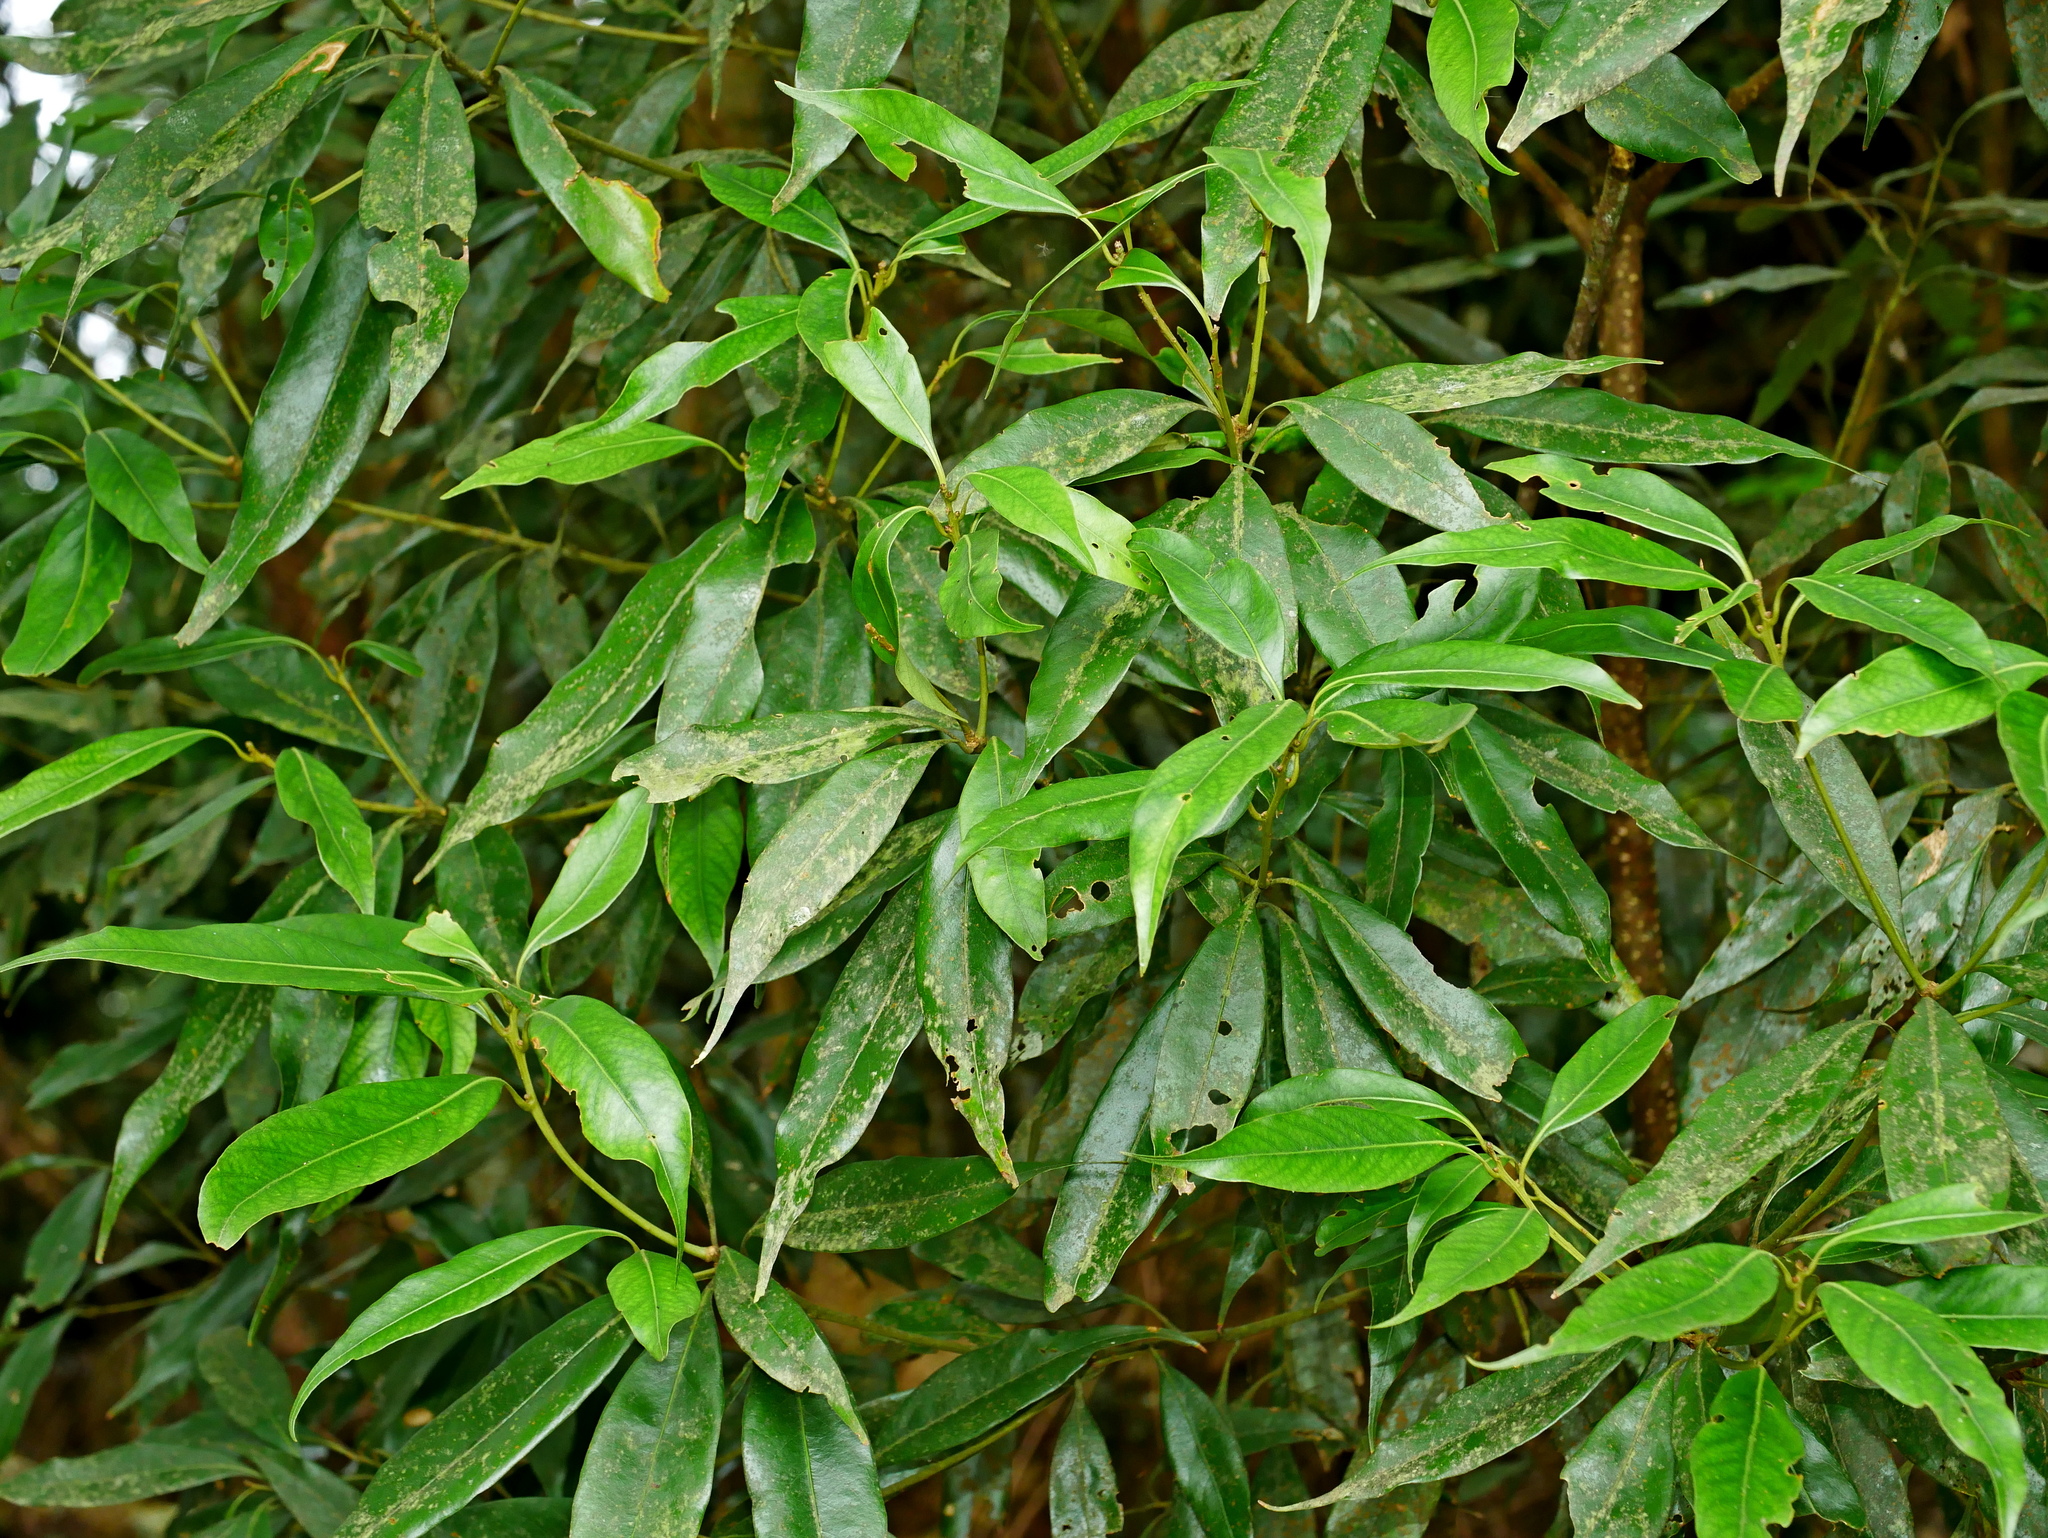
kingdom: Plantae
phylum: Tracheophyta
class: Magnoliopsida
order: Fagales
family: Fagaceae
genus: Lithocarpus
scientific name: Lithocarpus nantoensis
